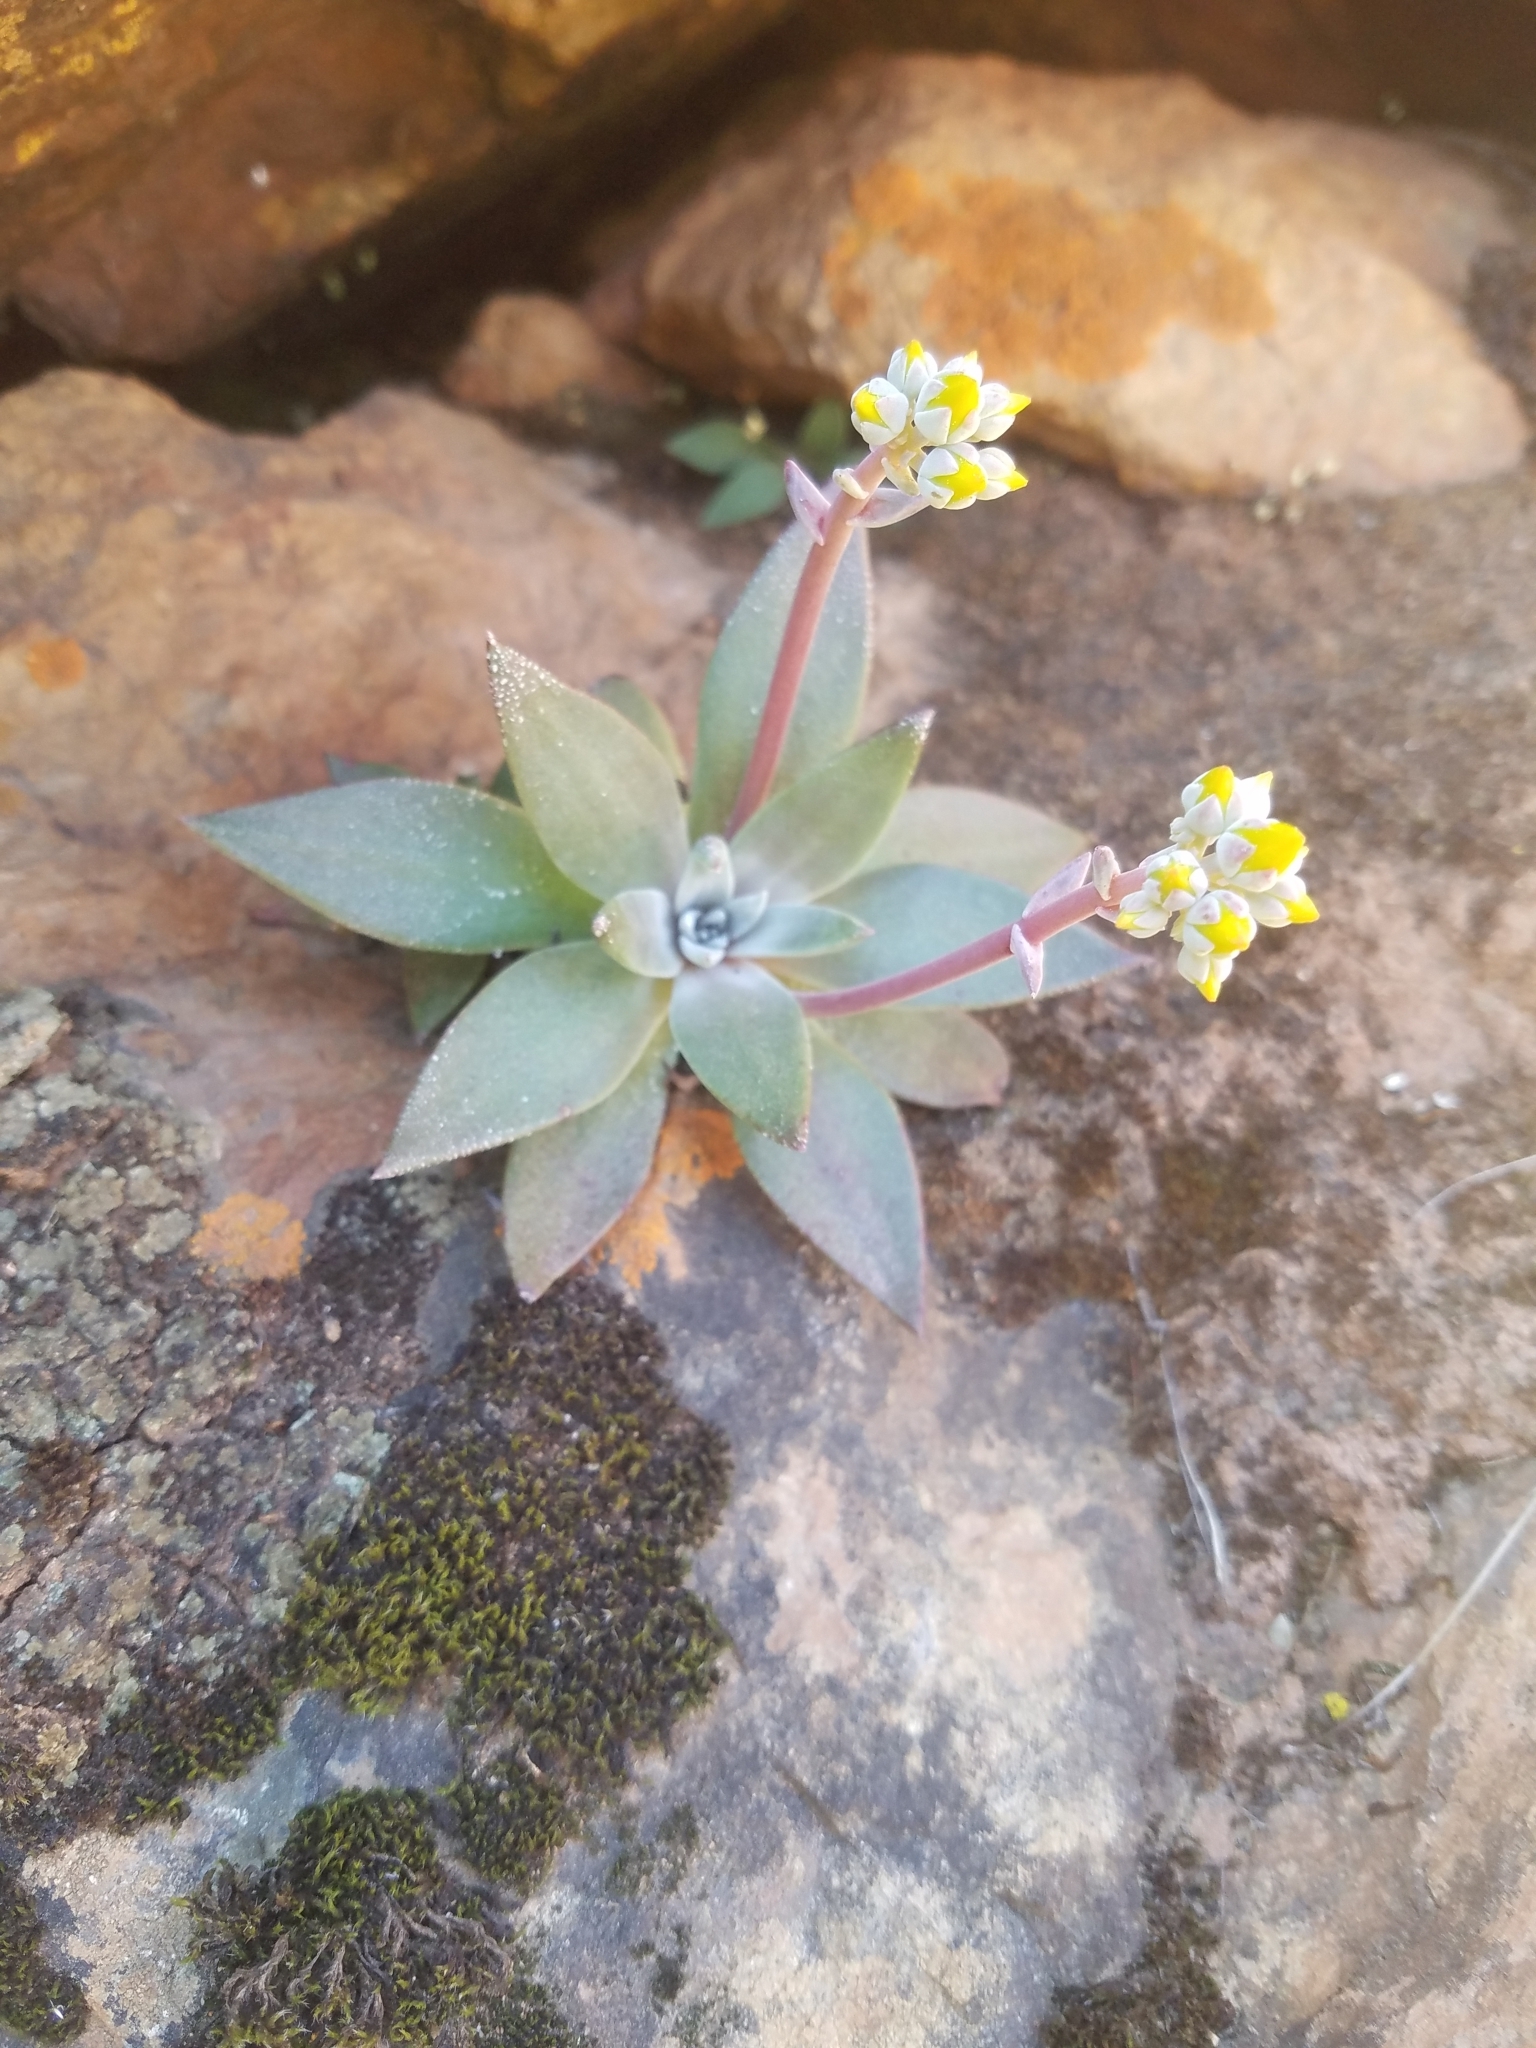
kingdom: Plantae
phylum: Tracheophyta
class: Magnoliopsida
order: Saxifragales
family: Crassulaceae
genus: Dudleya
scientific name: Dudleya cymosa
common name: Canyon dudleya
